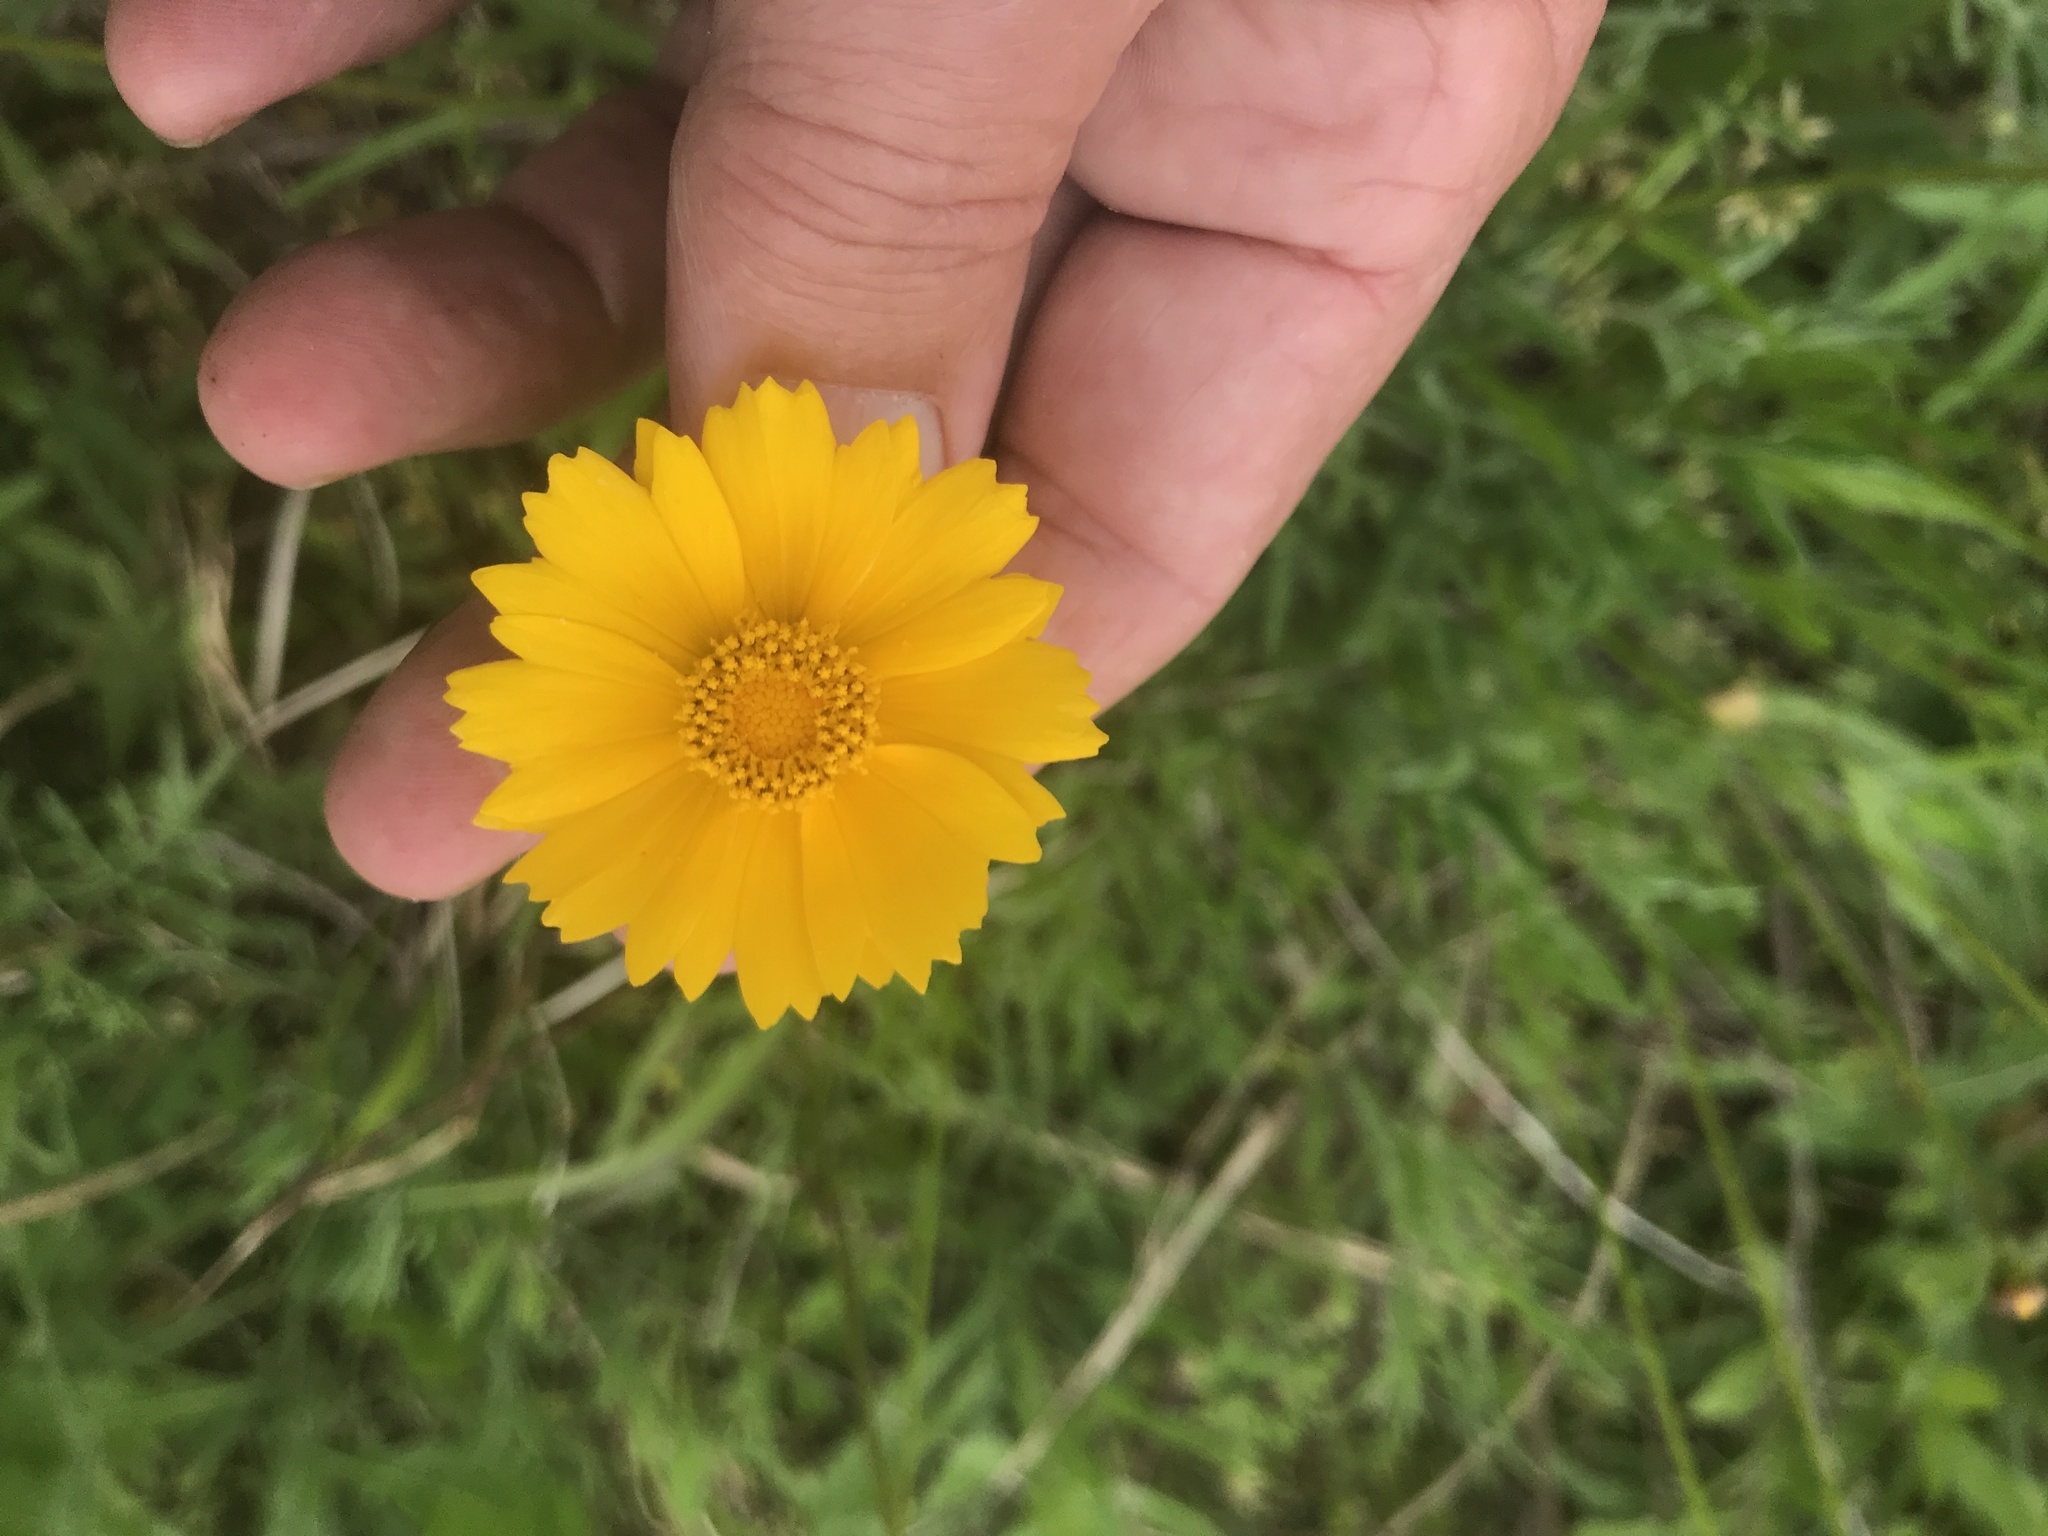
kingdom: Plantae
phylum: Tracheophyta
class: Magnoliopsida
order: Asterales
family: Asteraceae
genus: Coreopsis
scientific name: Coreopsis lanceolata
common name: Garden coreopsis
